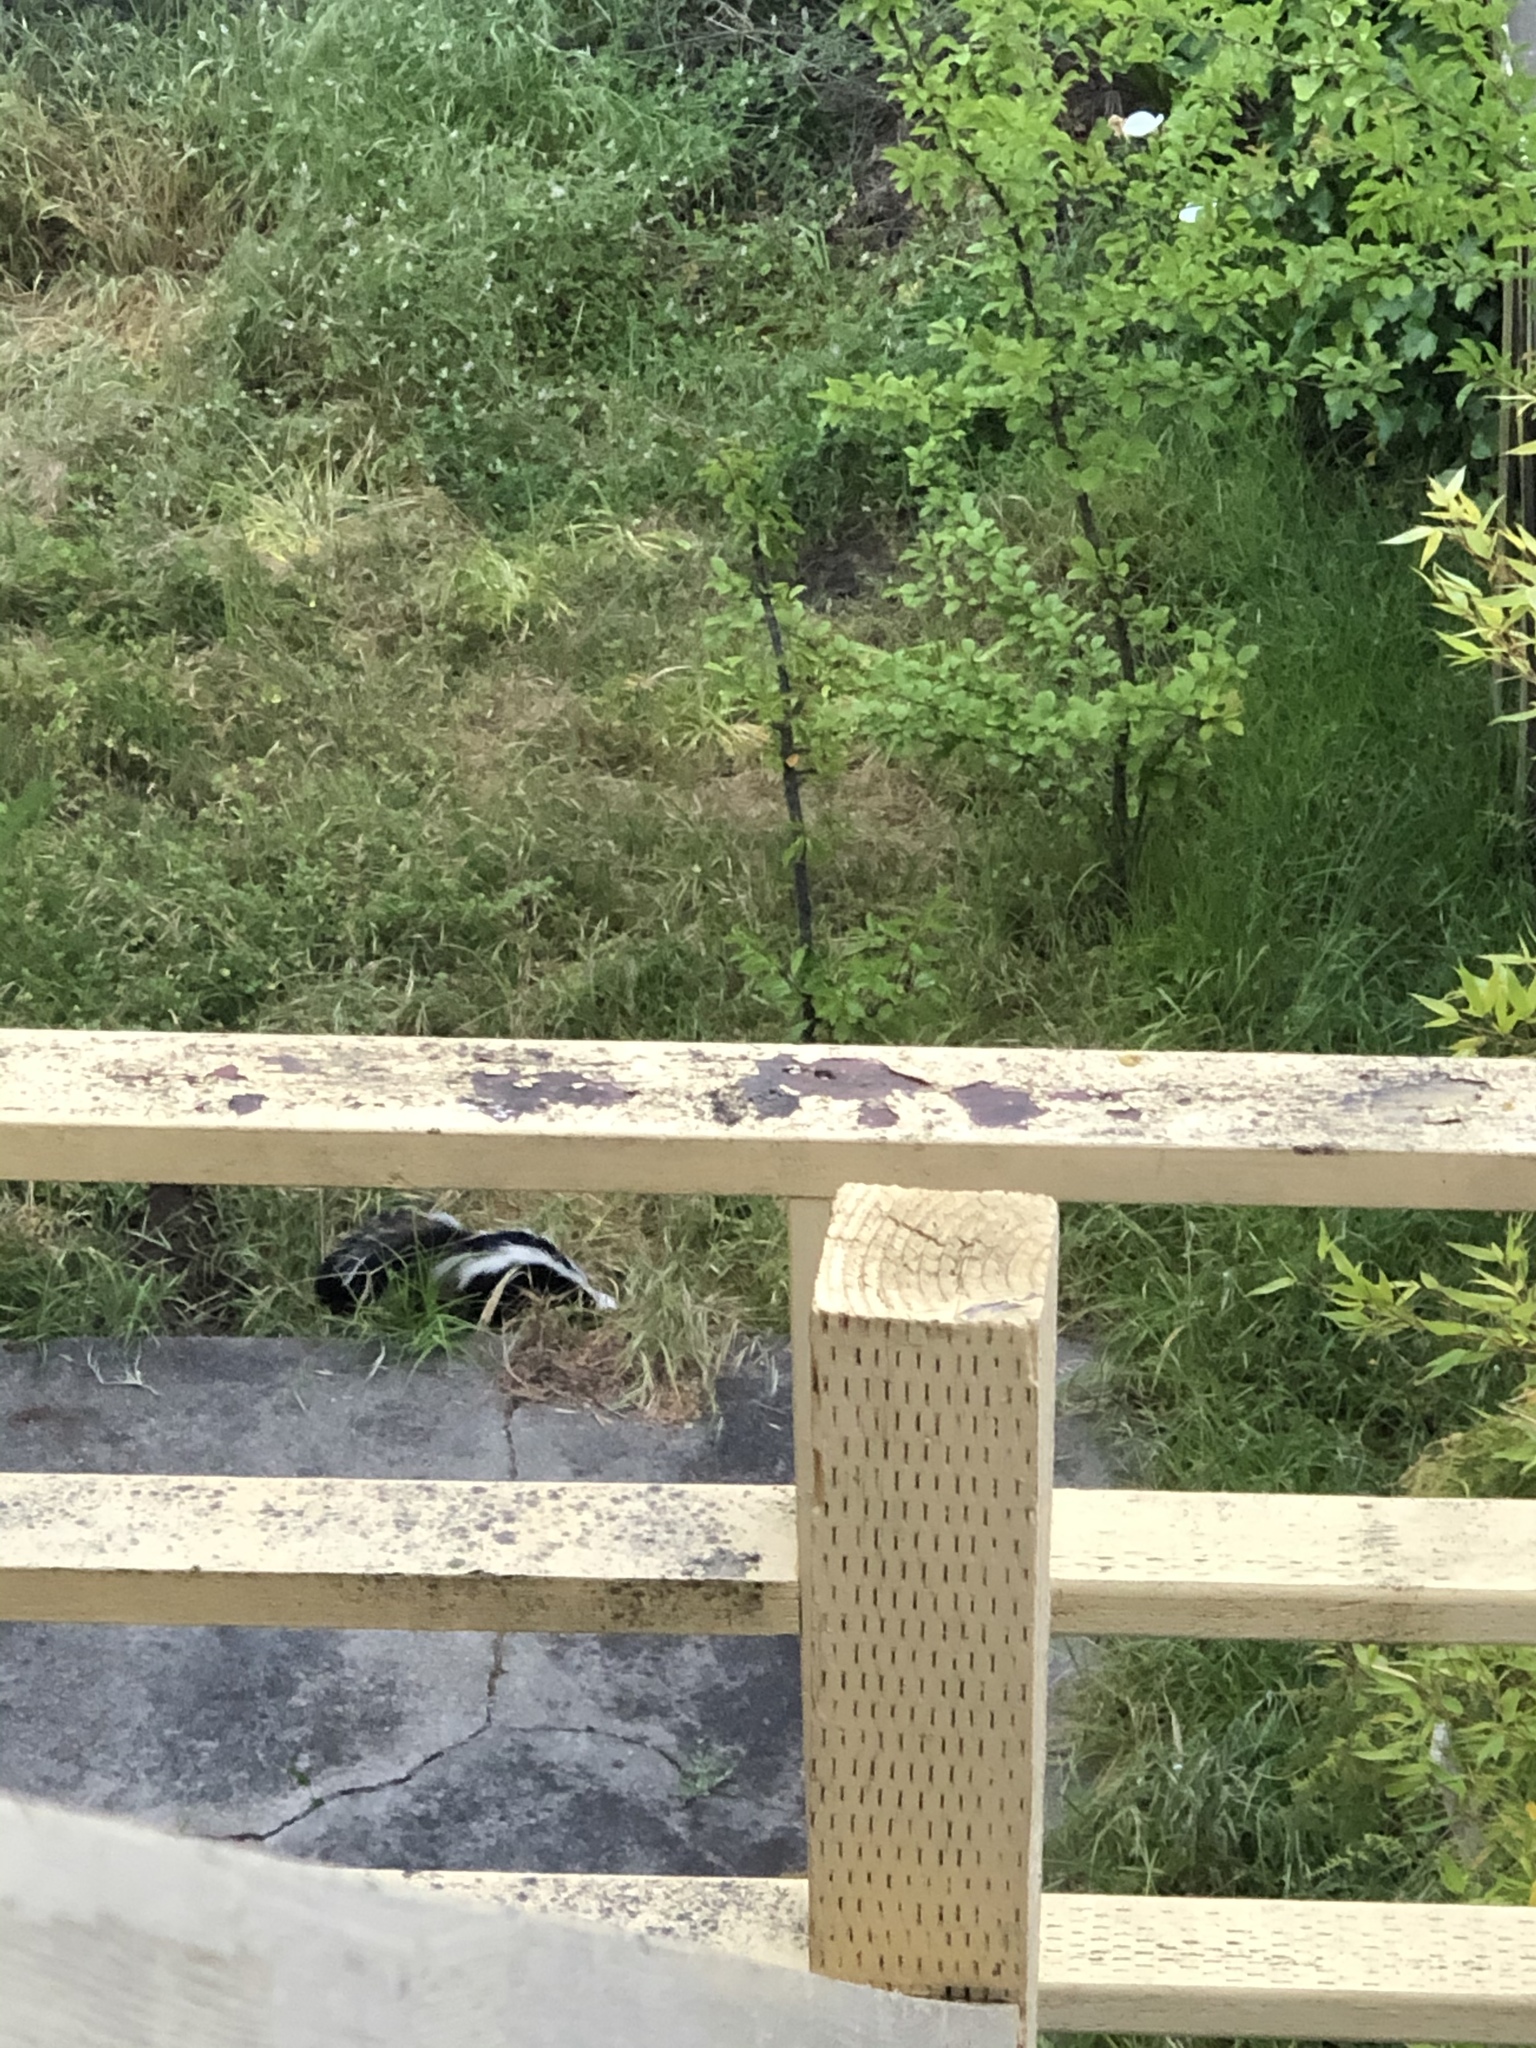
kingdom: Animalia
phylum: Chordata
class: Mammalia
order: Carnivora
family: Mephitidae
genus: Mephitis
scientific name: Mephitis mephitis
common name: Striped skunk
